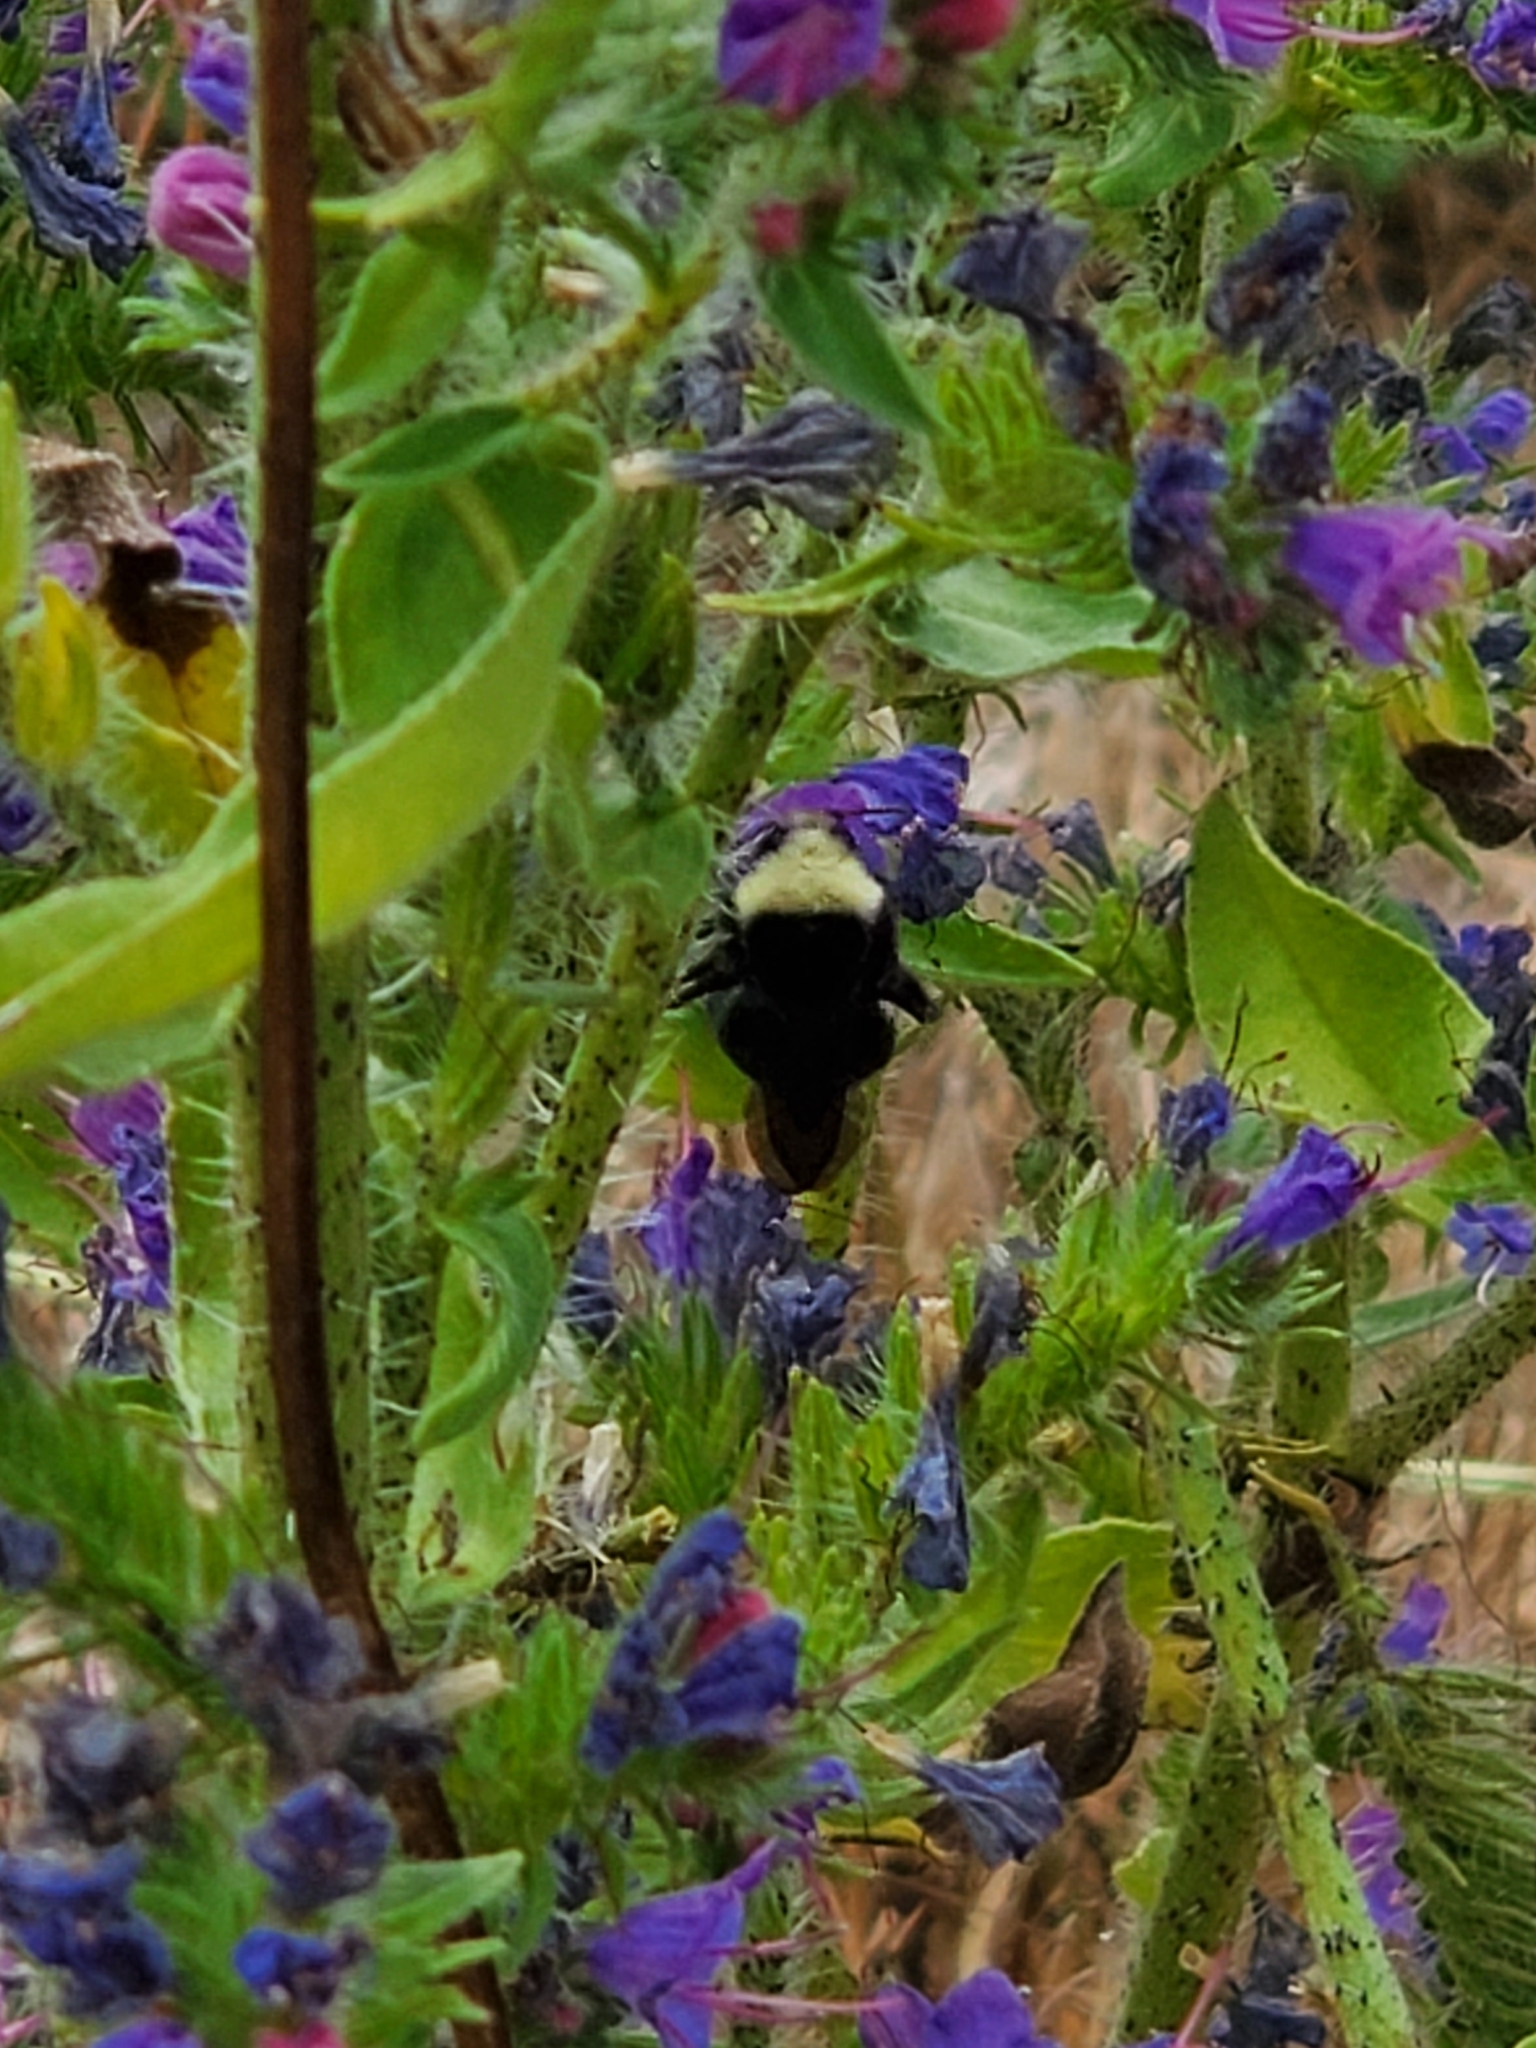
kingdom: Animalia
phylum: Arthropoda
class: Insecta
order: Hymenoptera
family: Apidae
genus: Bombus
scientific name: Bombus vosnesenskii
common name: Vosnesensky bumble bee
